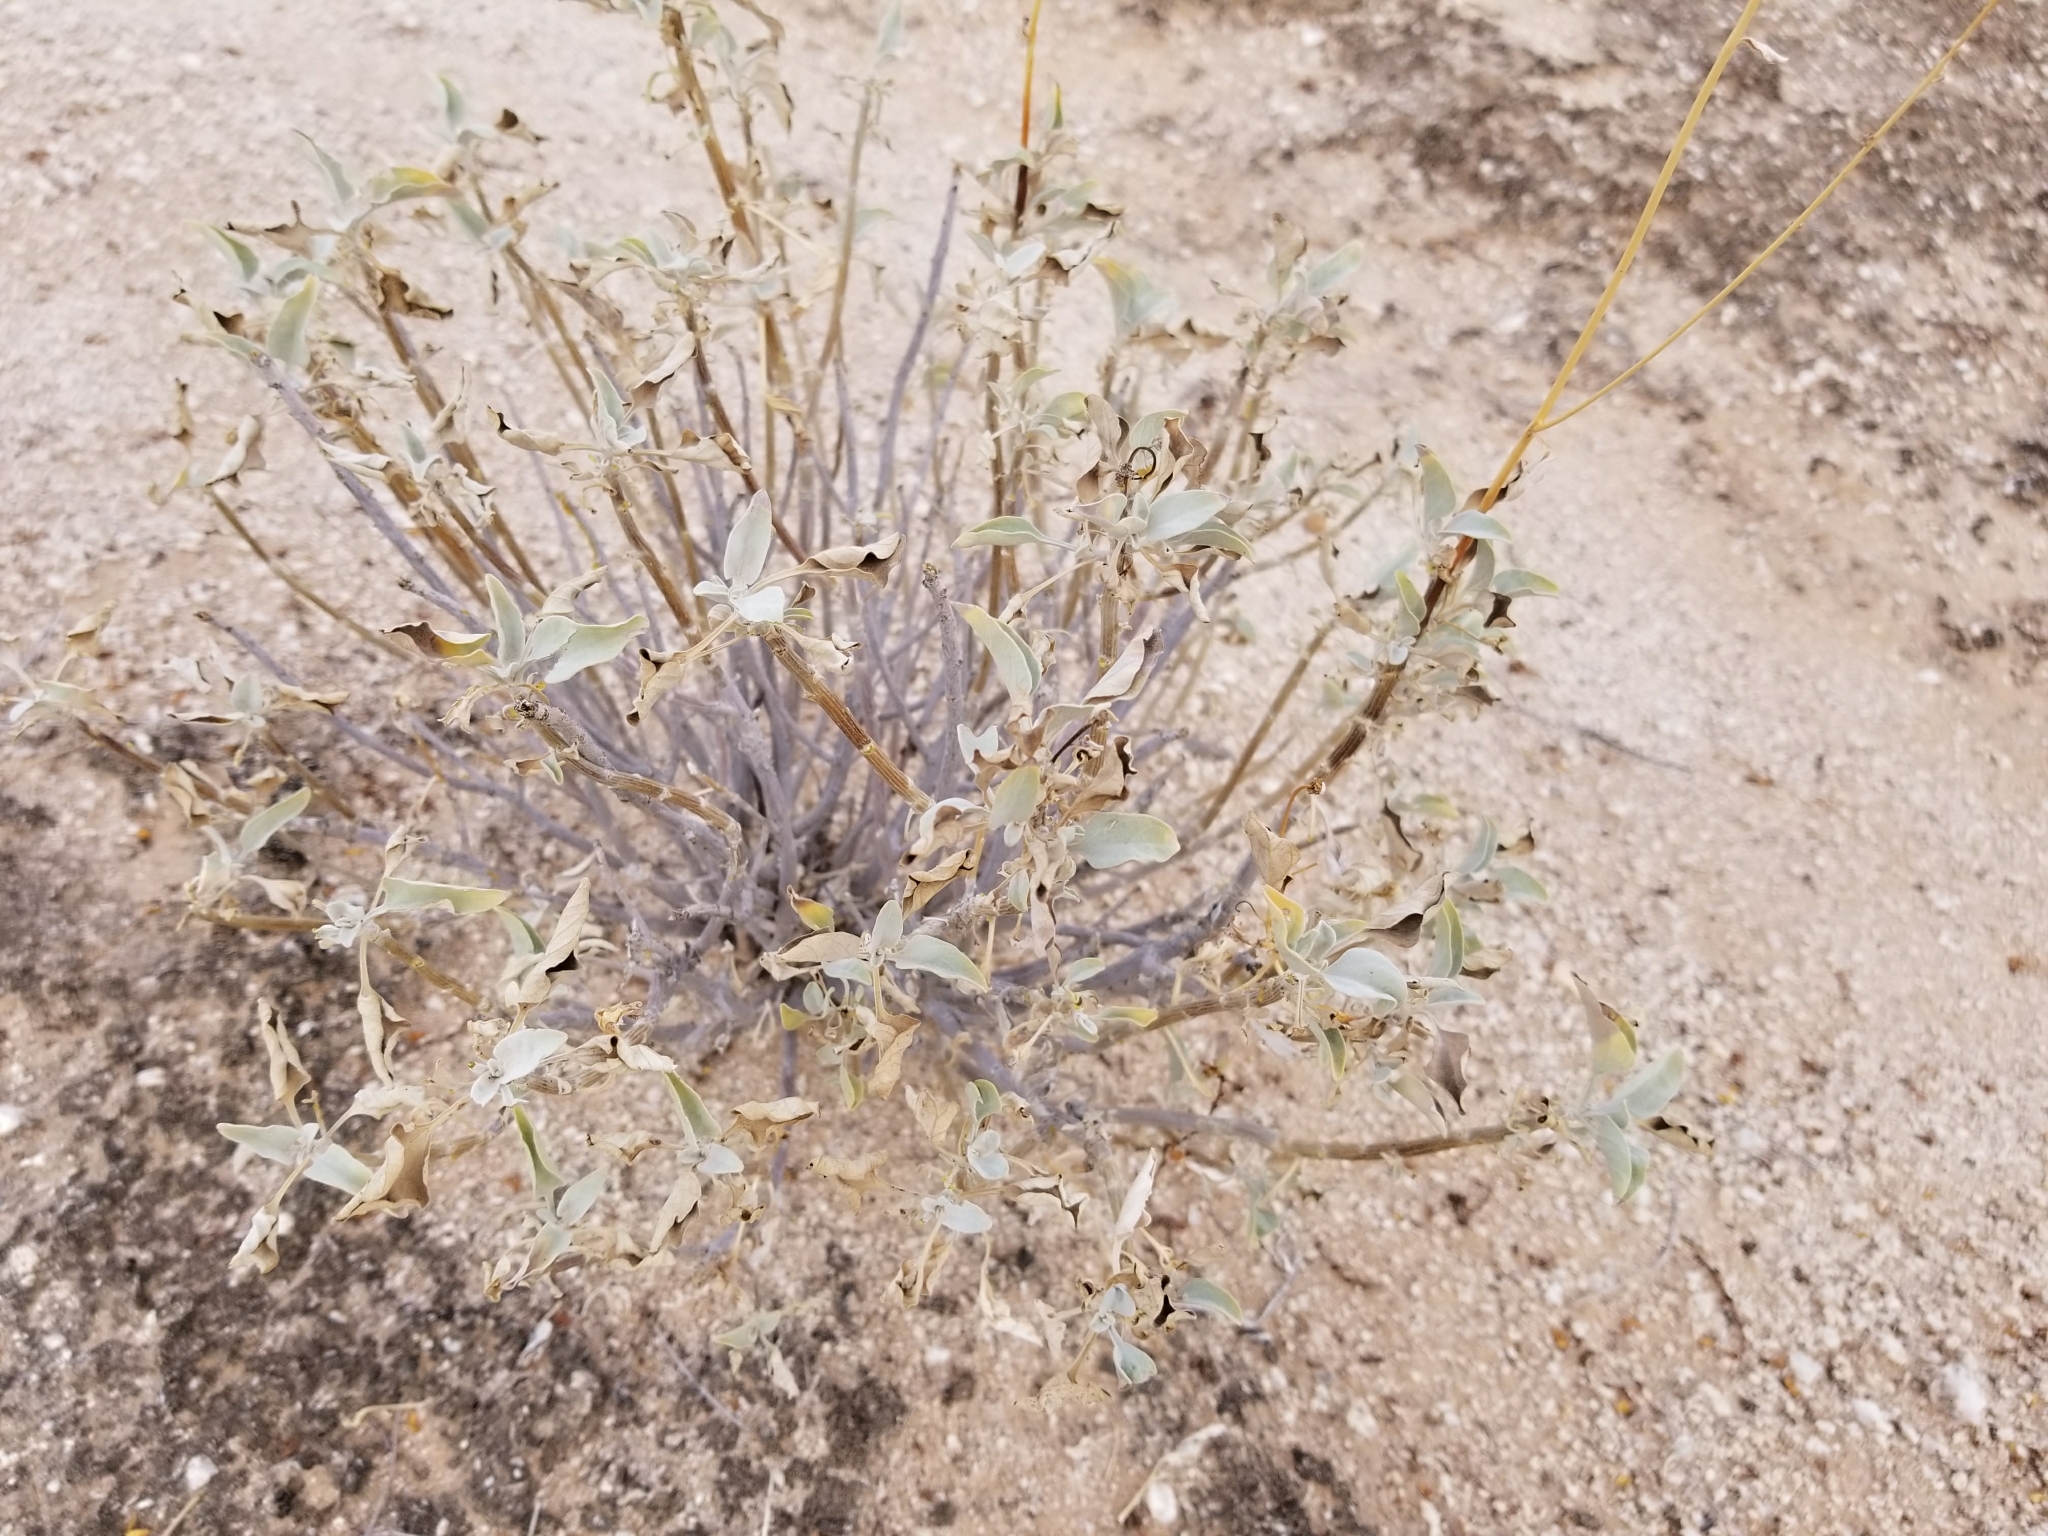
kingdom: Plantae
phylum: Tracheophyta
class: Magnoliopsida
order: Asterales
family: Asteraceae
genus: Encelia
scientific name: Encelia farinosa
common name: Brittlebush
